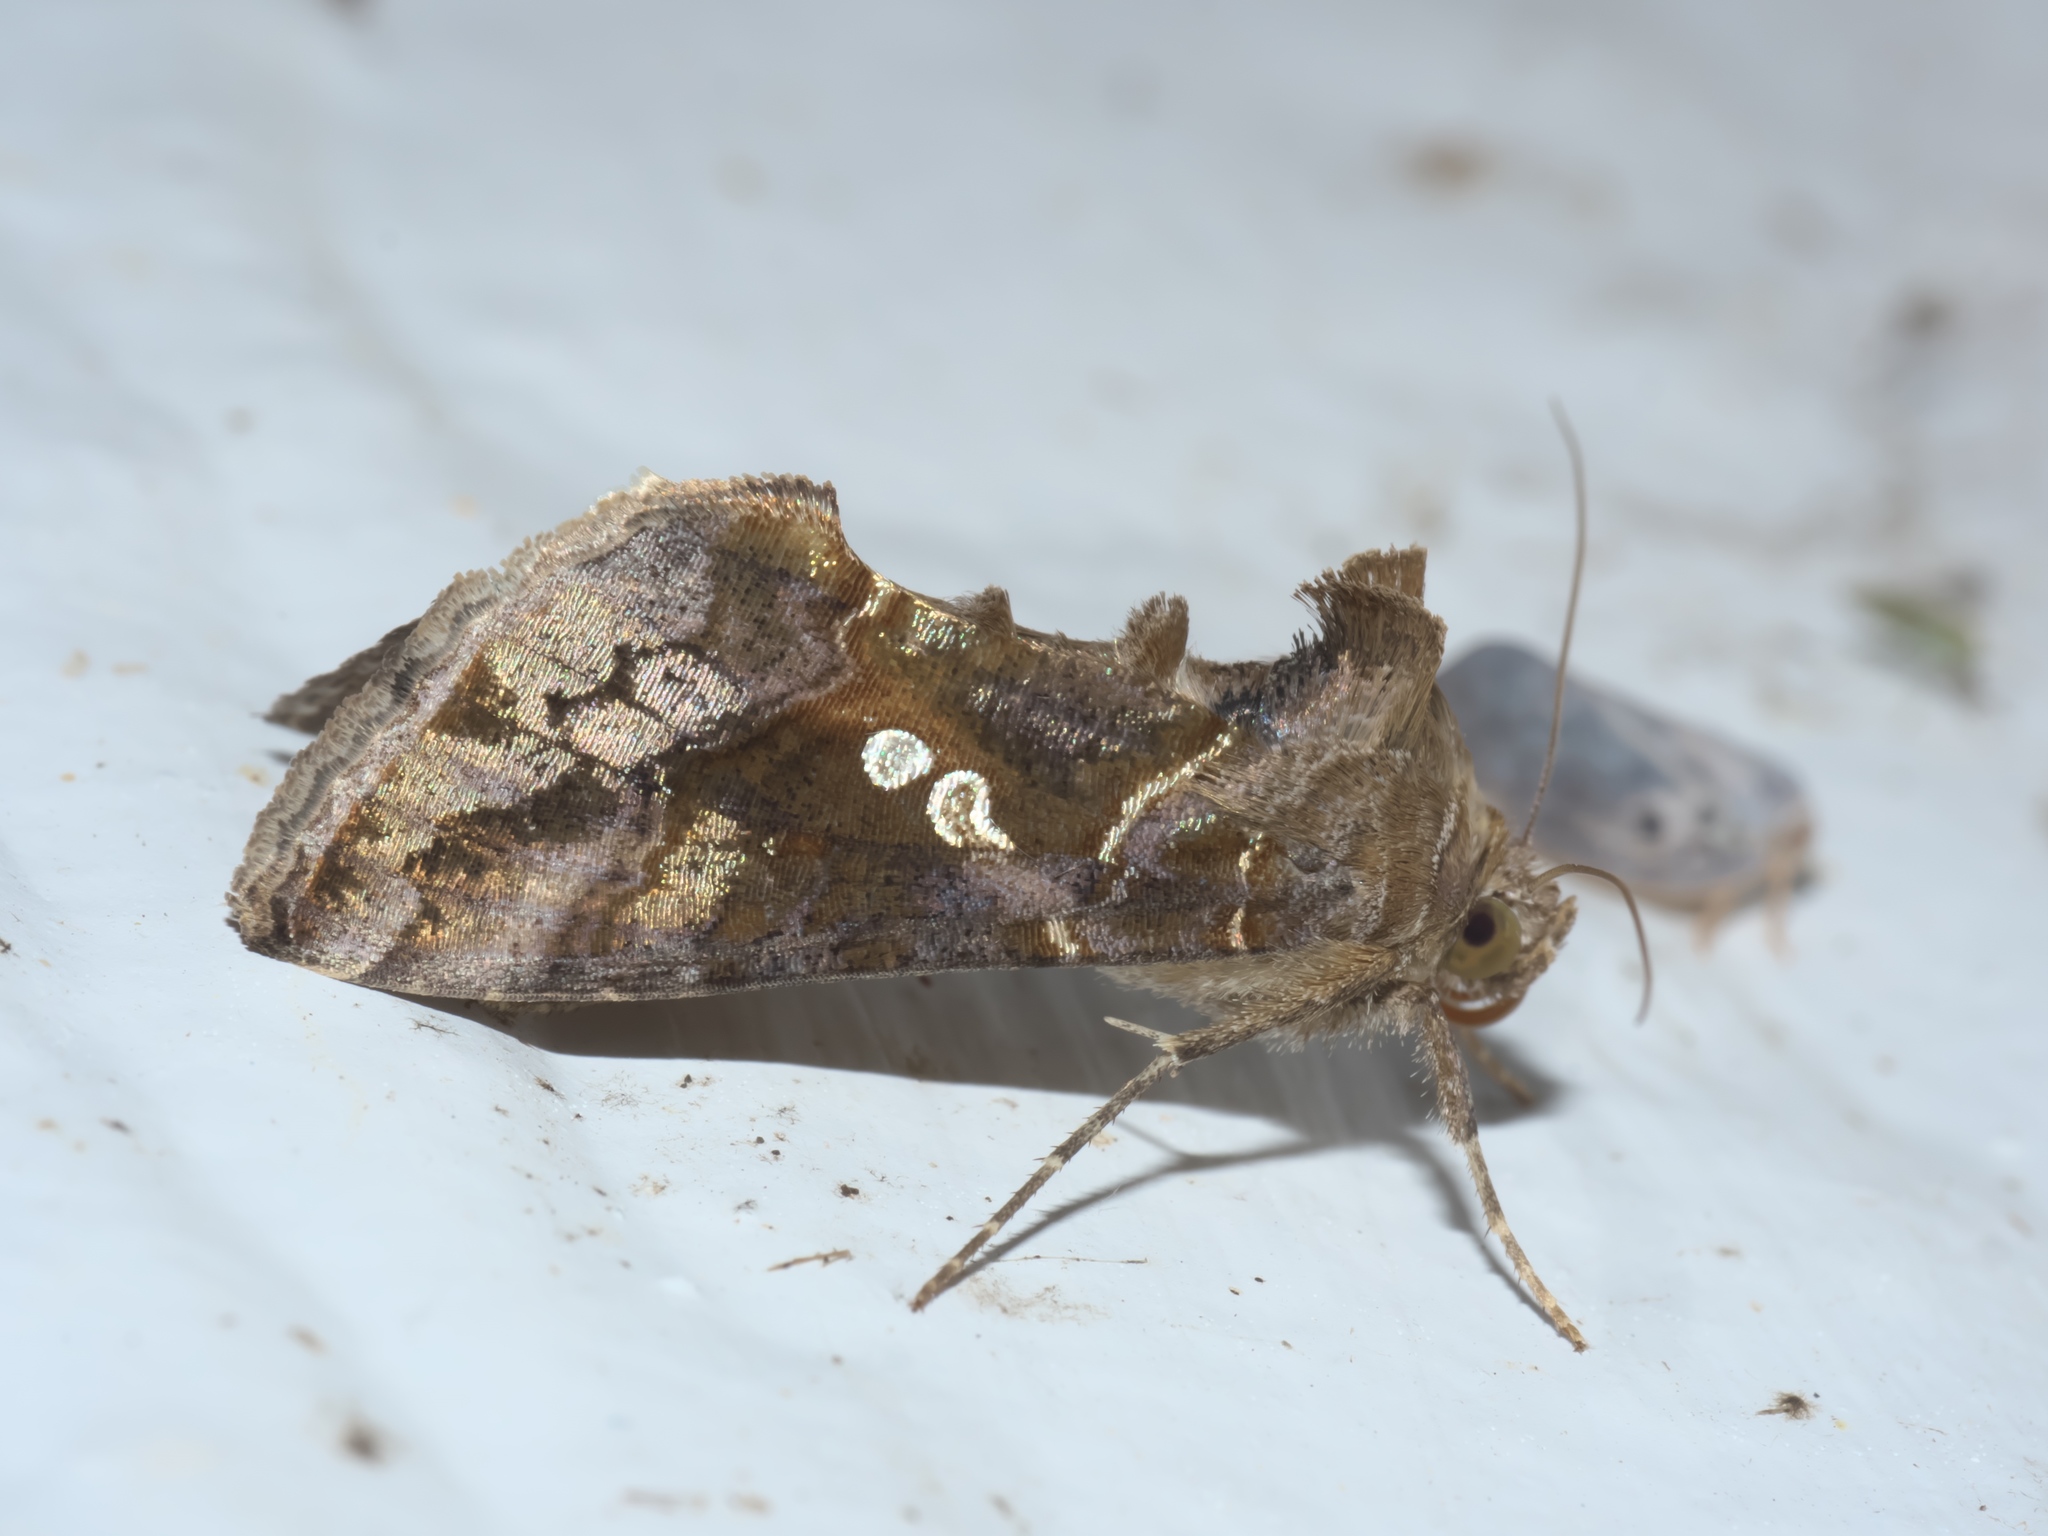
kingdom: Animalia
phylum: Arthropoda
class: Insecta
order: Lepidoptera
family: Noctuidae
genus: Chrysodeixis
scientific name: Chrysodeixis includens
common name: Cutworm moth
